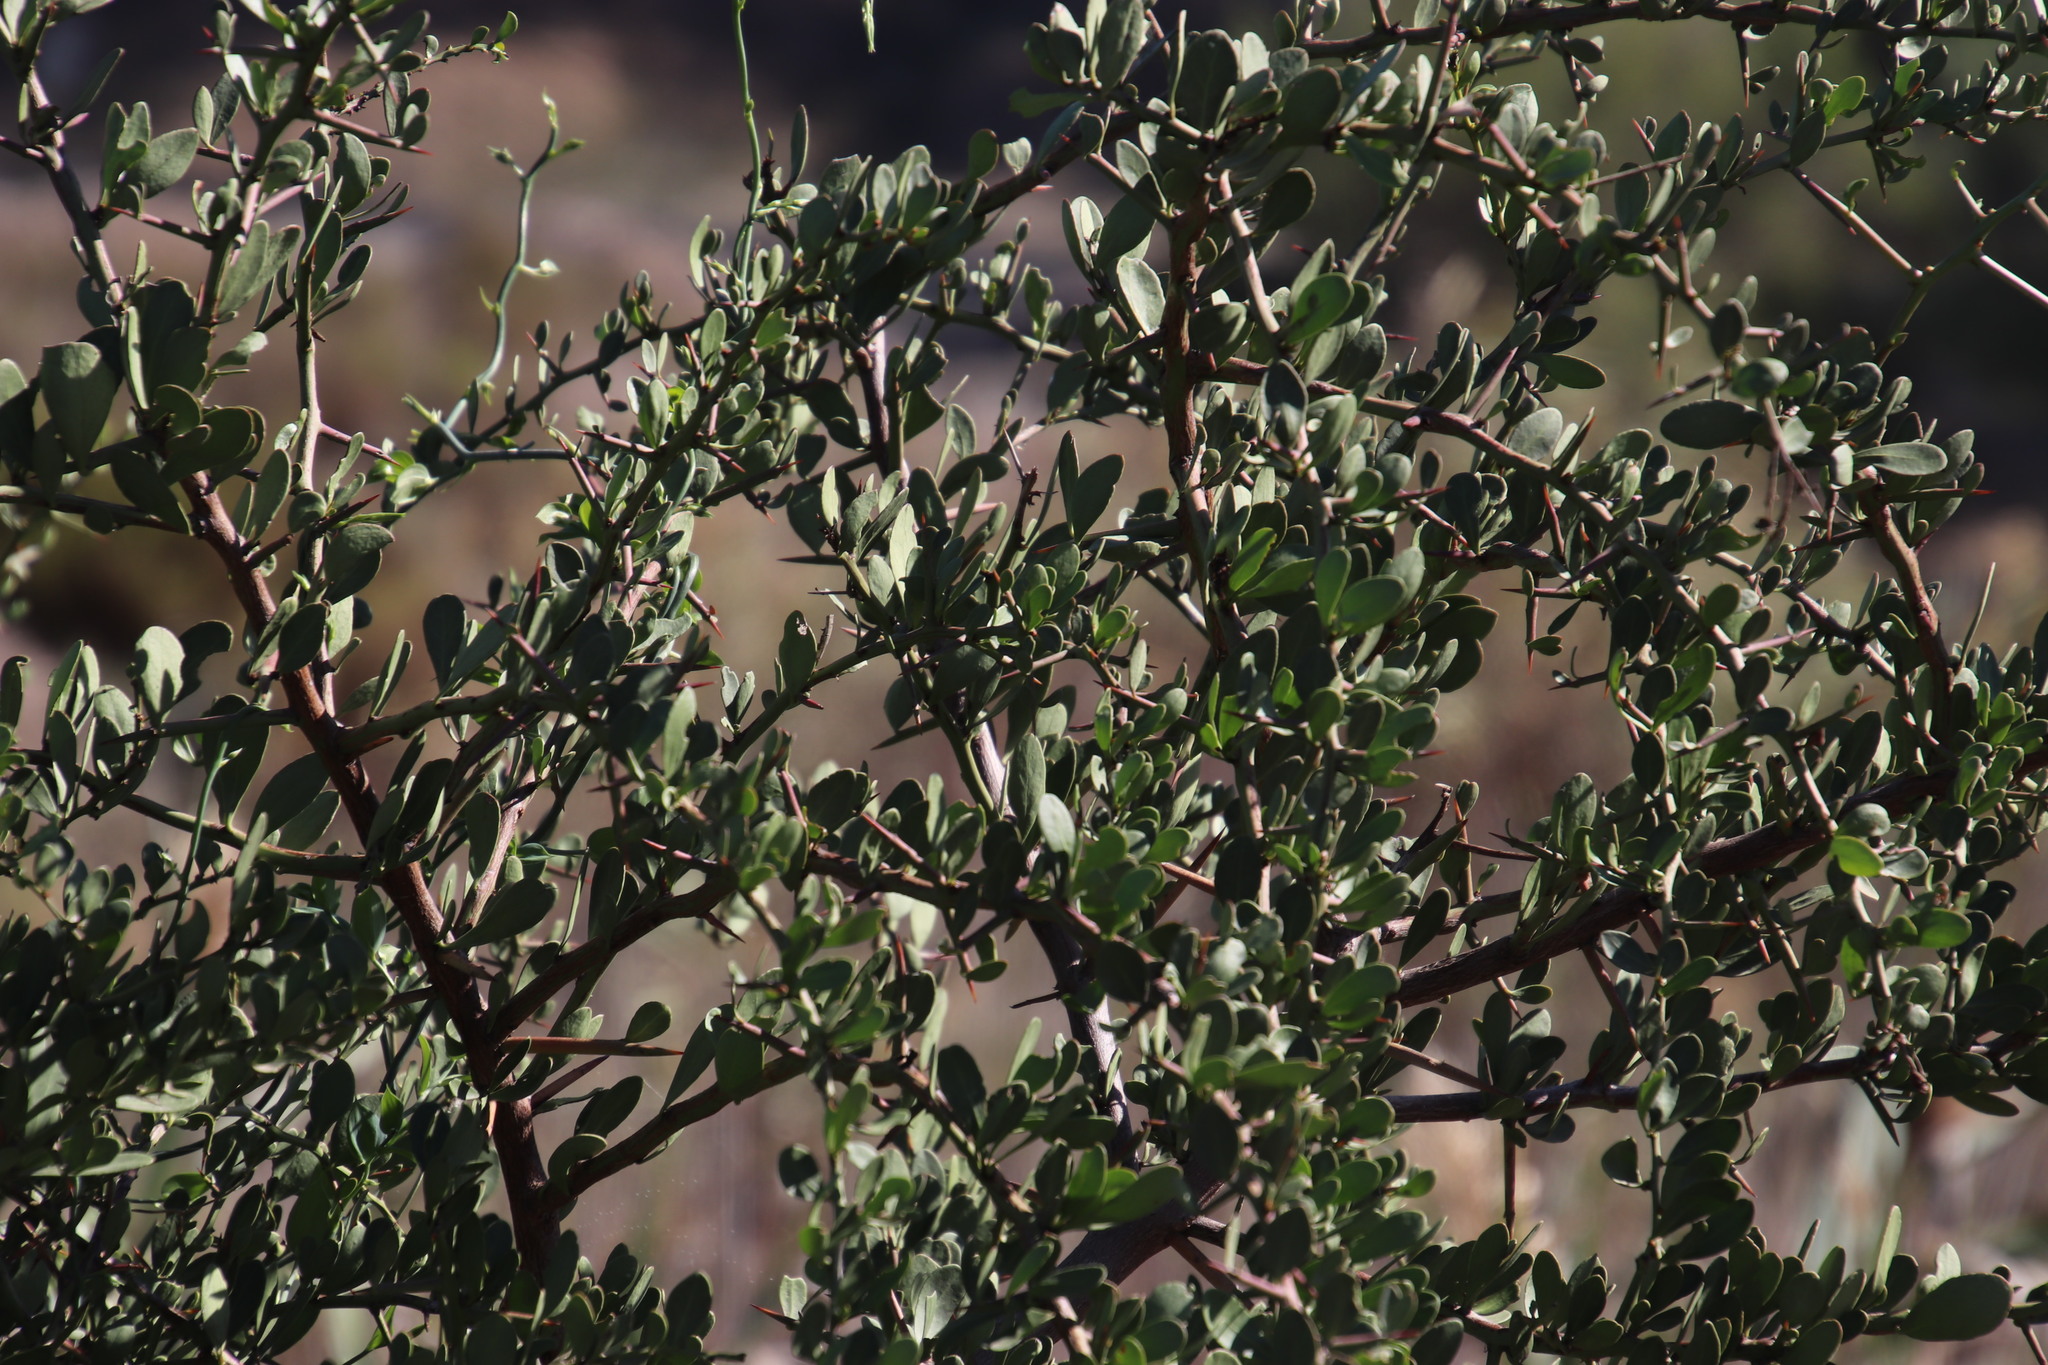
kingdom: Plantae
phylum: Tracheophyta
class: Magnoliopsida
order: Celastrales
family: Celastraceae
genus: Gymnosporia
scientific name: Gymnosporia buxifolia
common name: Common spike-thorn
